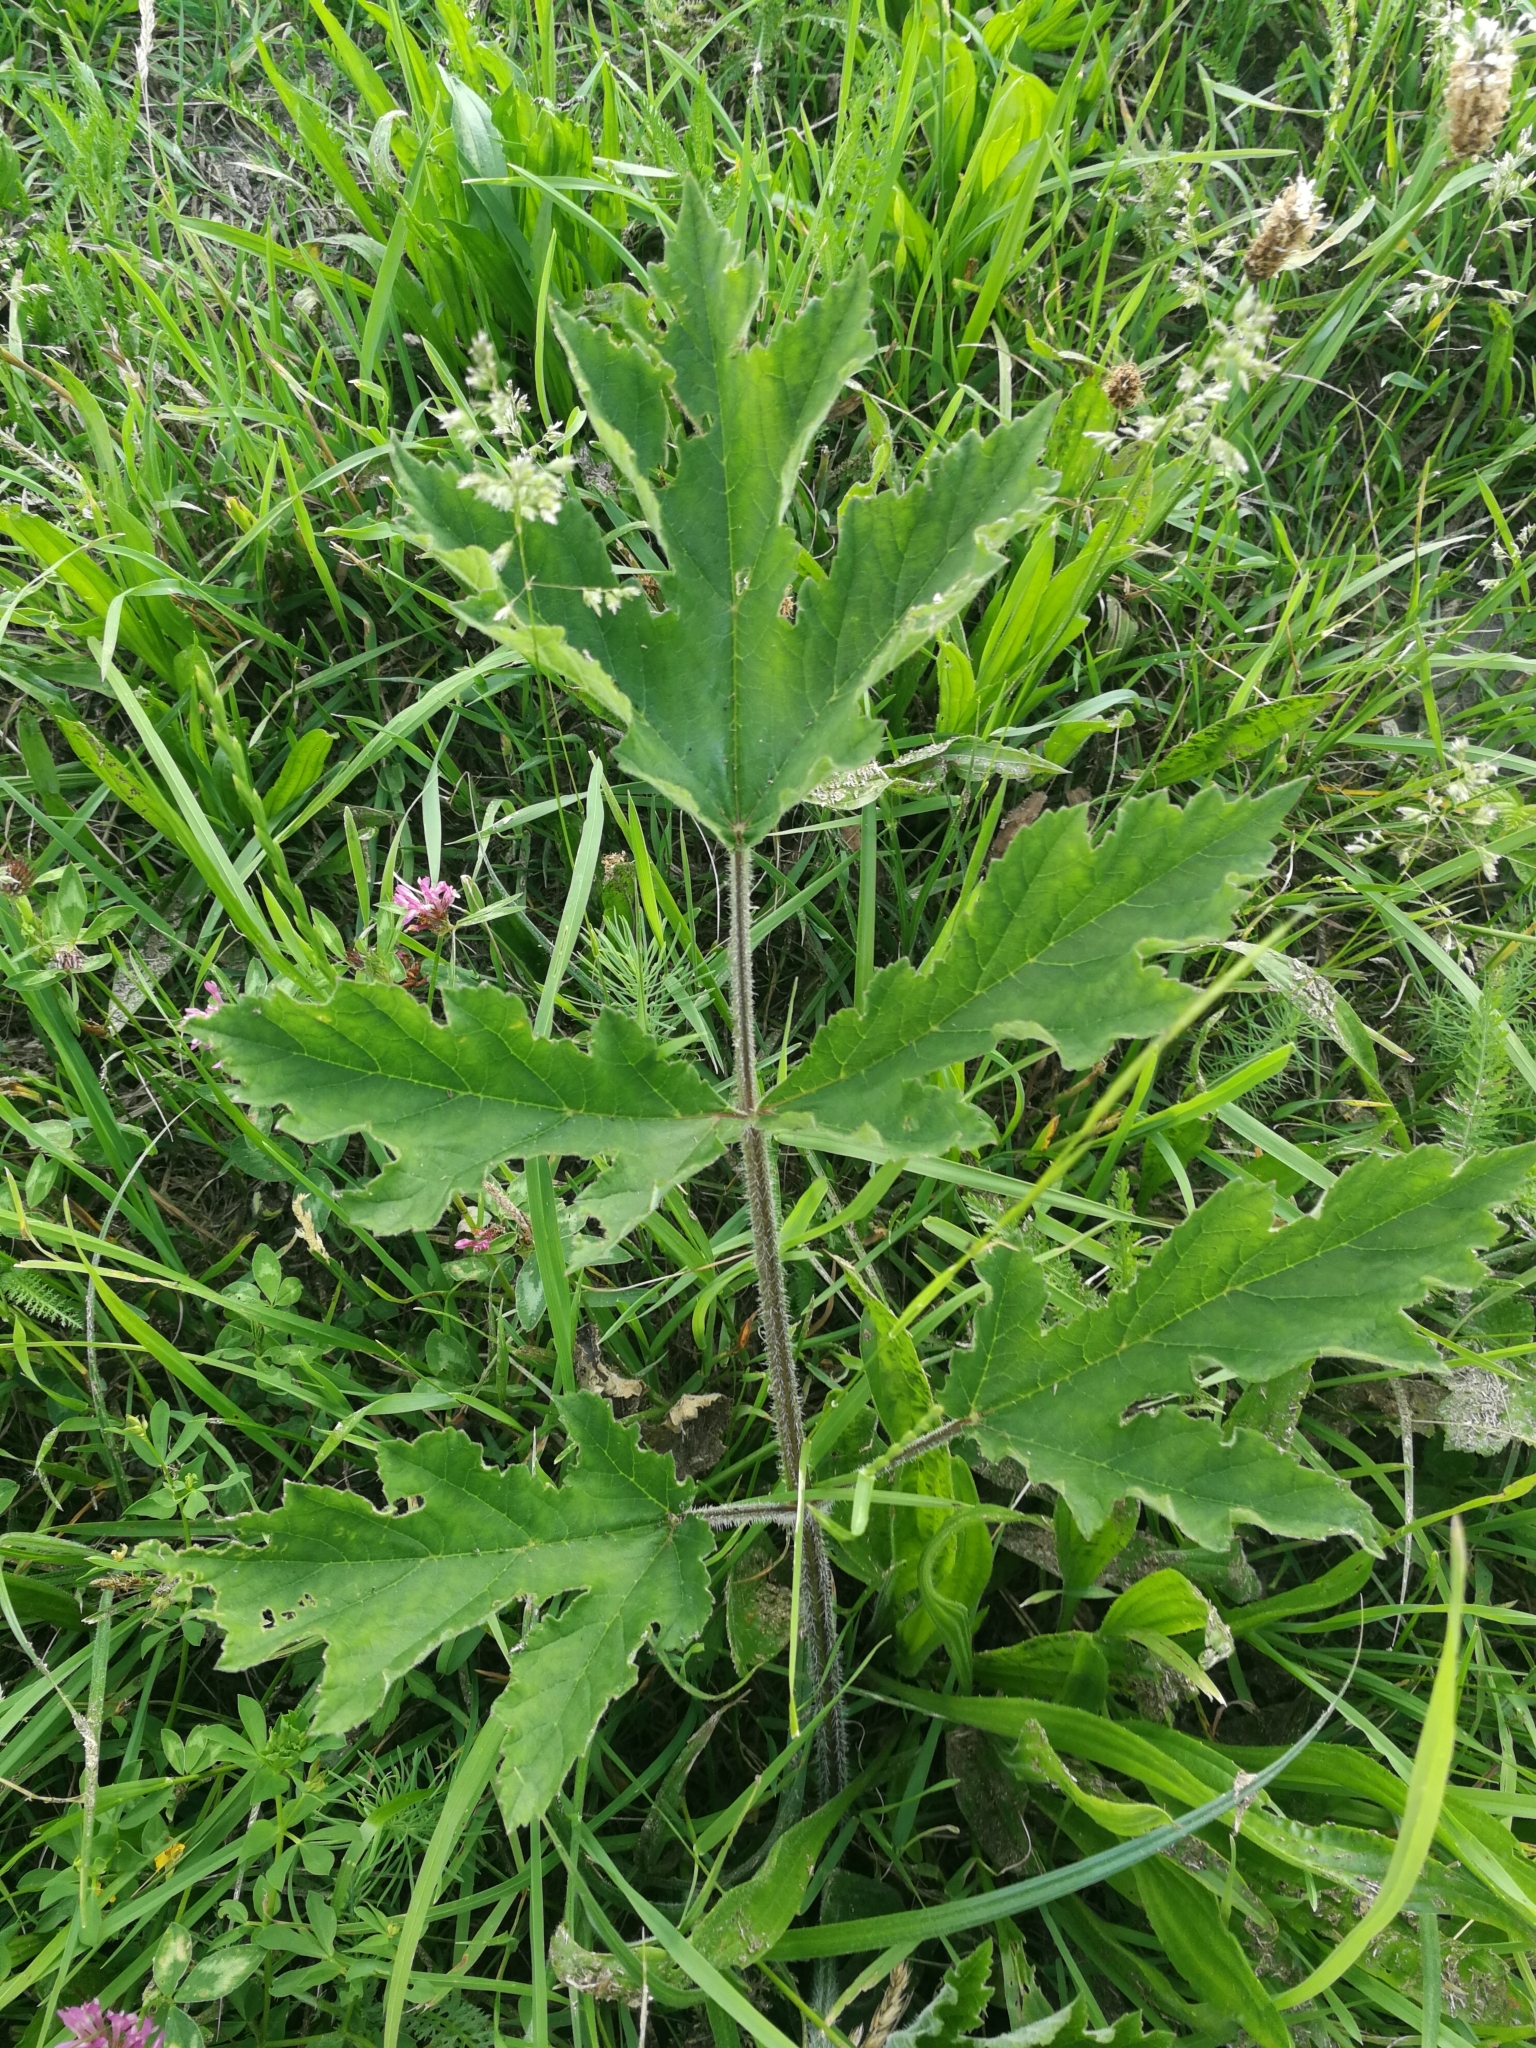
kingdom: Plantae
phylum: Tracheophyta
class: Magnoliopsida
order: Apiales
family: Apiaceae
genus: Heracleum
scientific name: Heracleum sphondylium
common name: Hogweed
